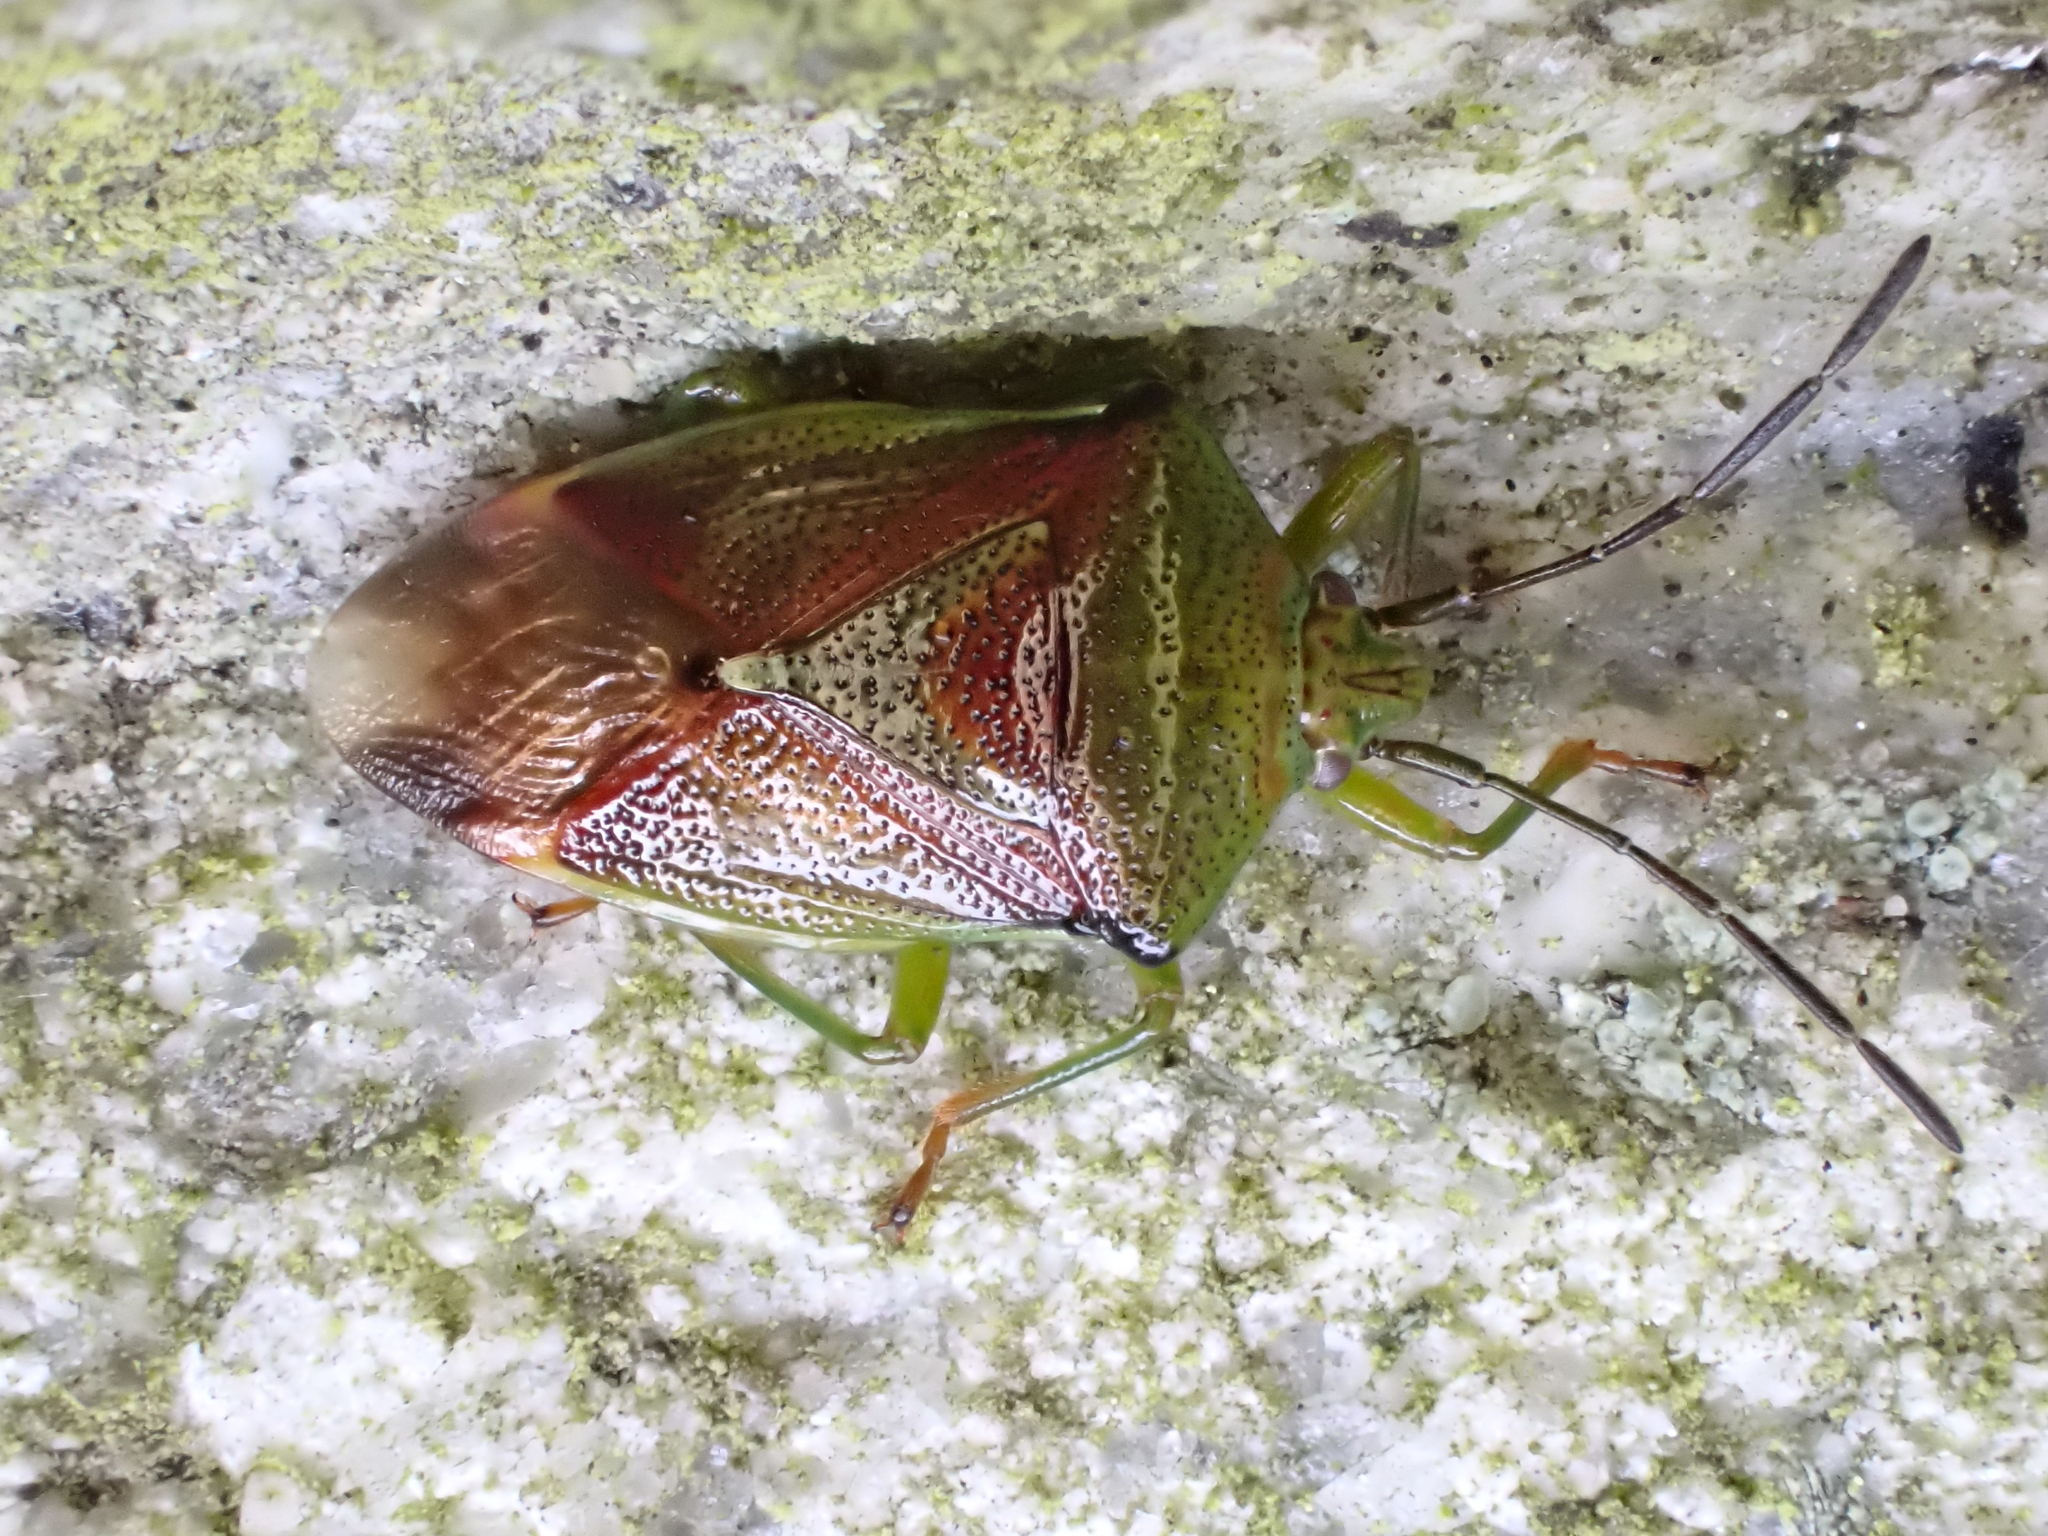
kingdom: Animalia
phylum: Arthropoda
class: Insecta
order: Hemiptera
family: Acanthosomatidae
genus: Elasmostethus
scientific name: Elasmostethus interstinctus
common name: Birch shieldbug
